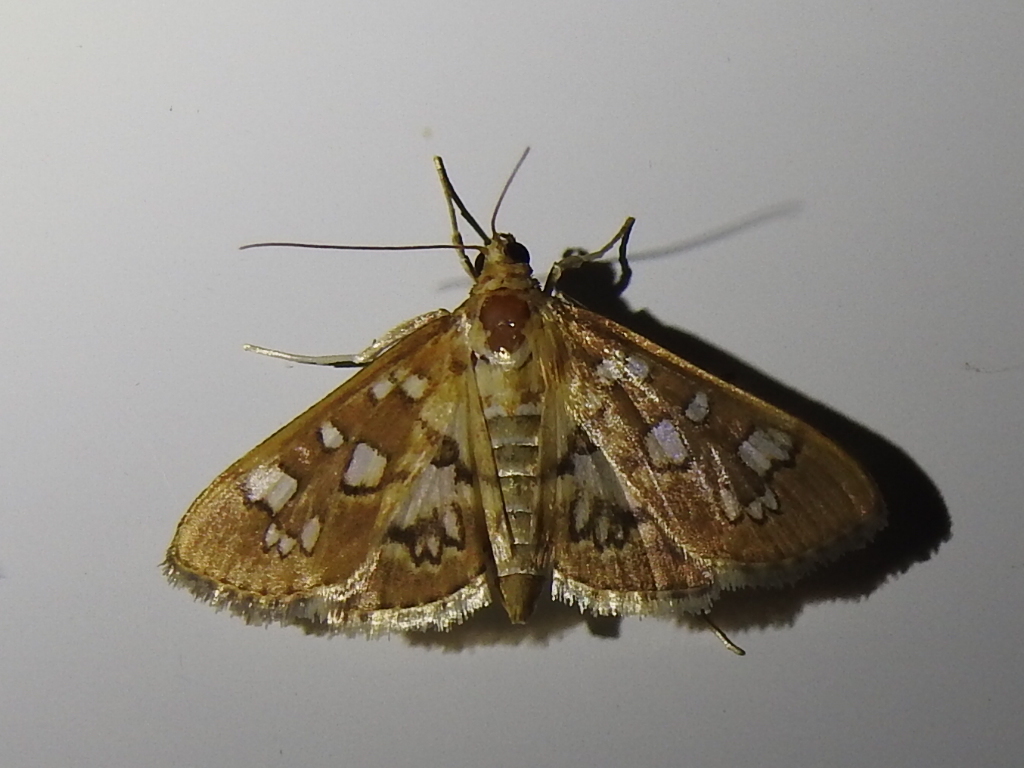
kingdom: Animalia
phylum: Arthropoda
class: Insecta
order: Lepidoptera
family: Crambidae
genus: Samea
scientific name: Samea baccatalis
